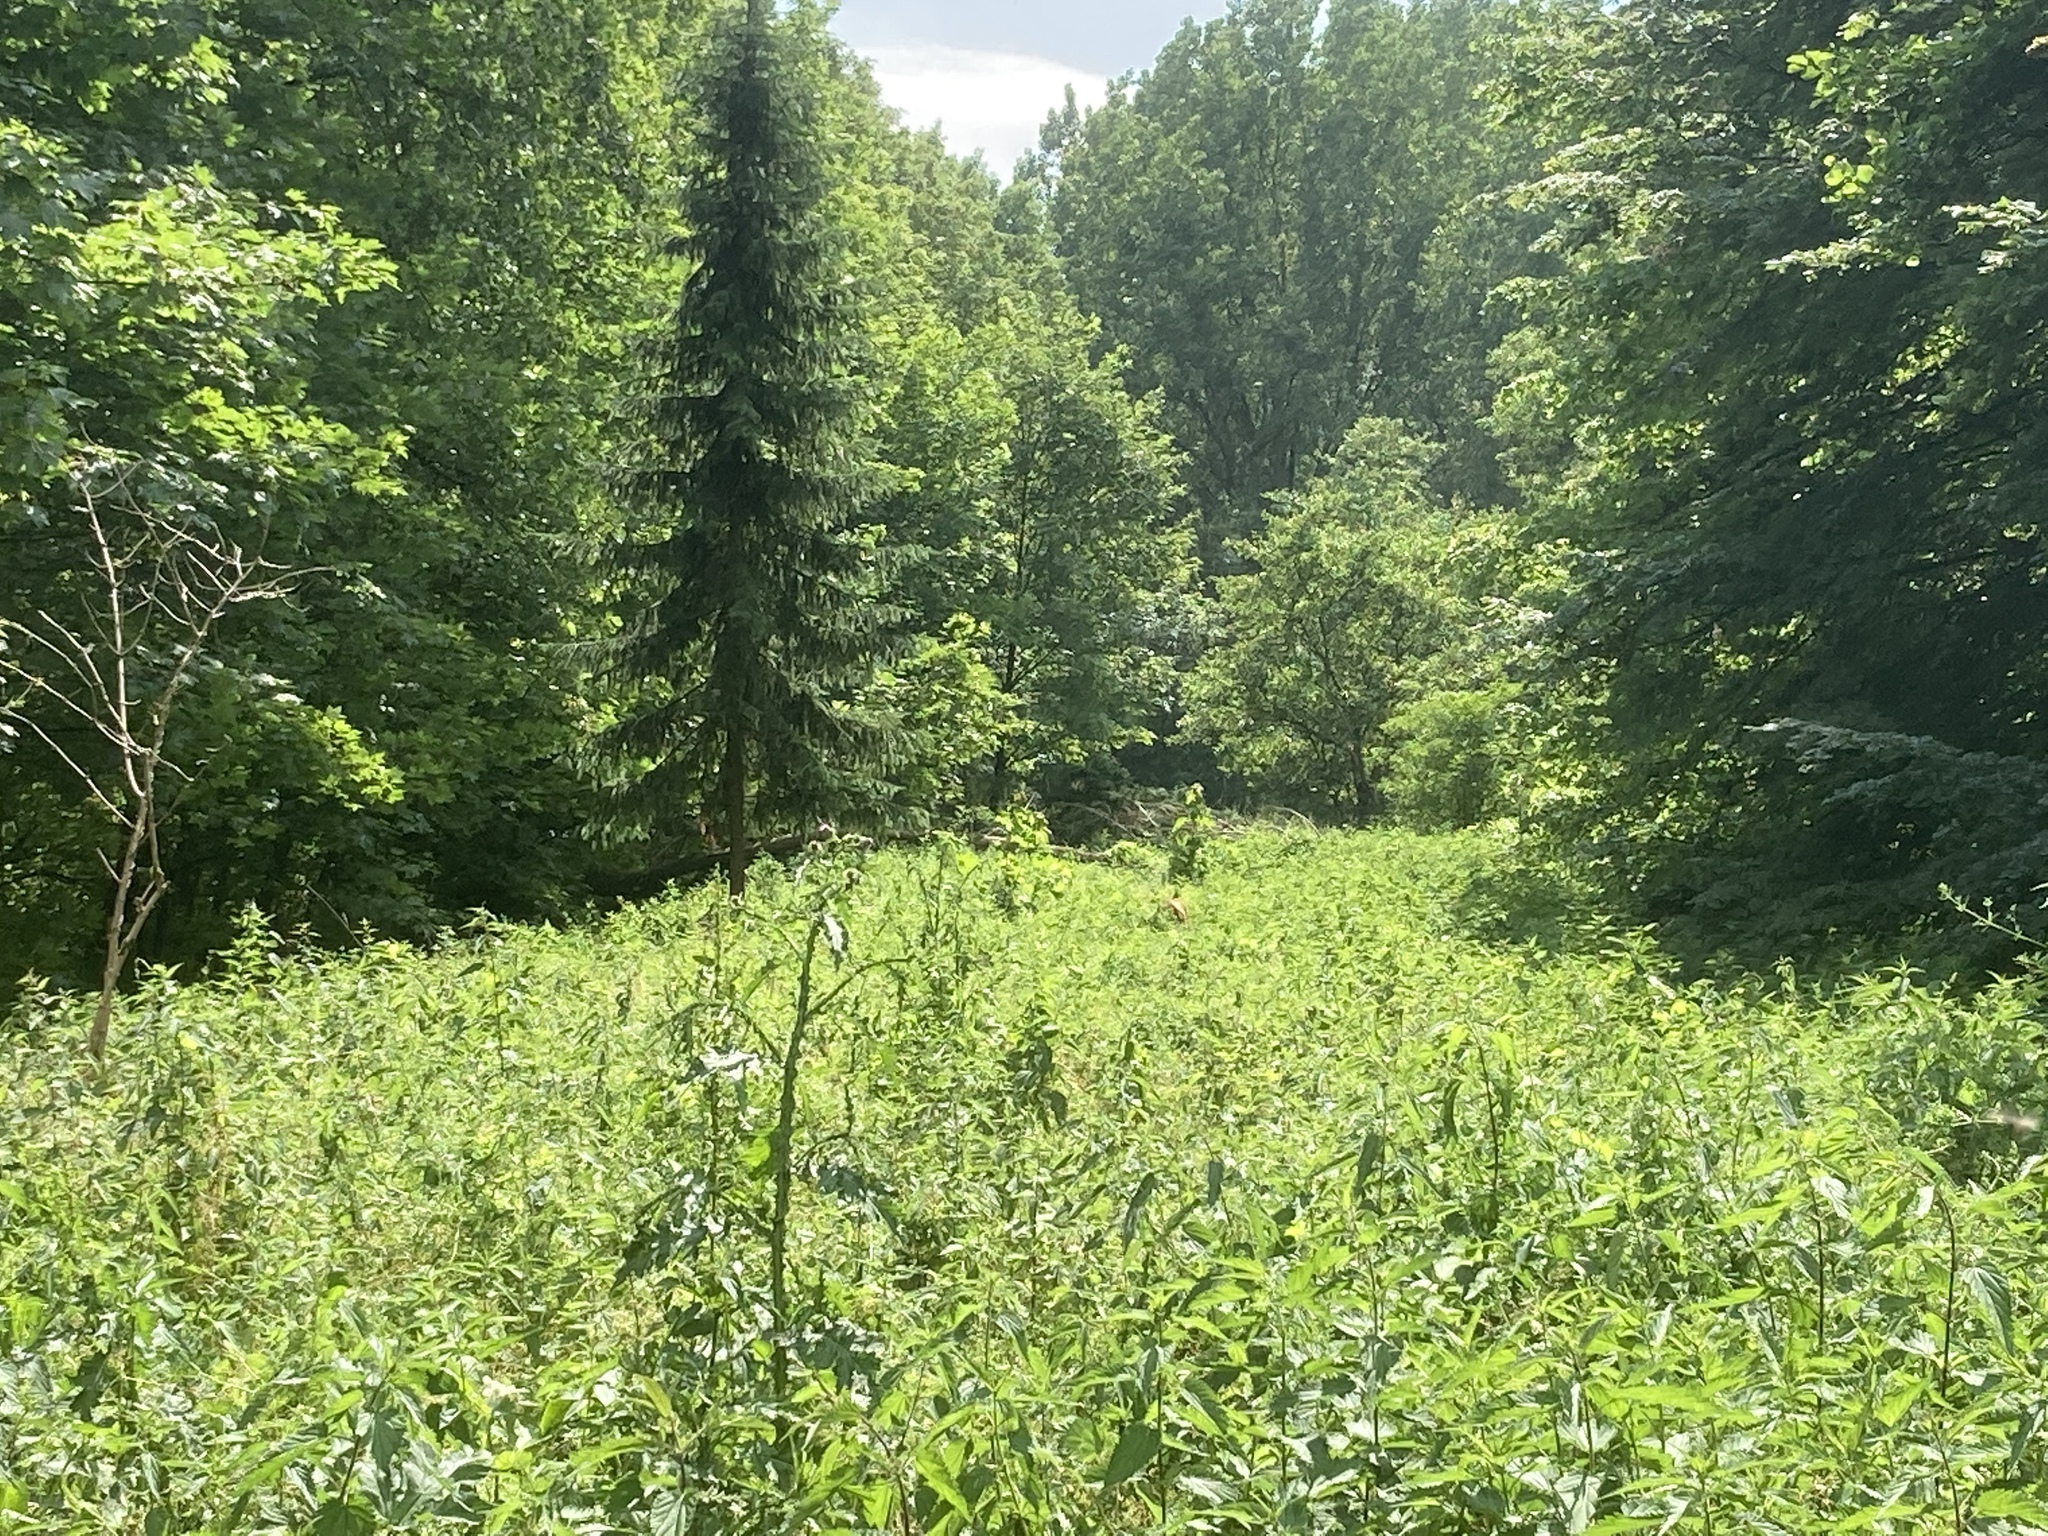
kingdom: Plantae
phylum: Tracheophyta
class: Magnoliopsida
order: Fabales
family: Fabaceae
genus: Lupinus
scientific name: Lupinus polyphyllus
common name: Garden lupin
